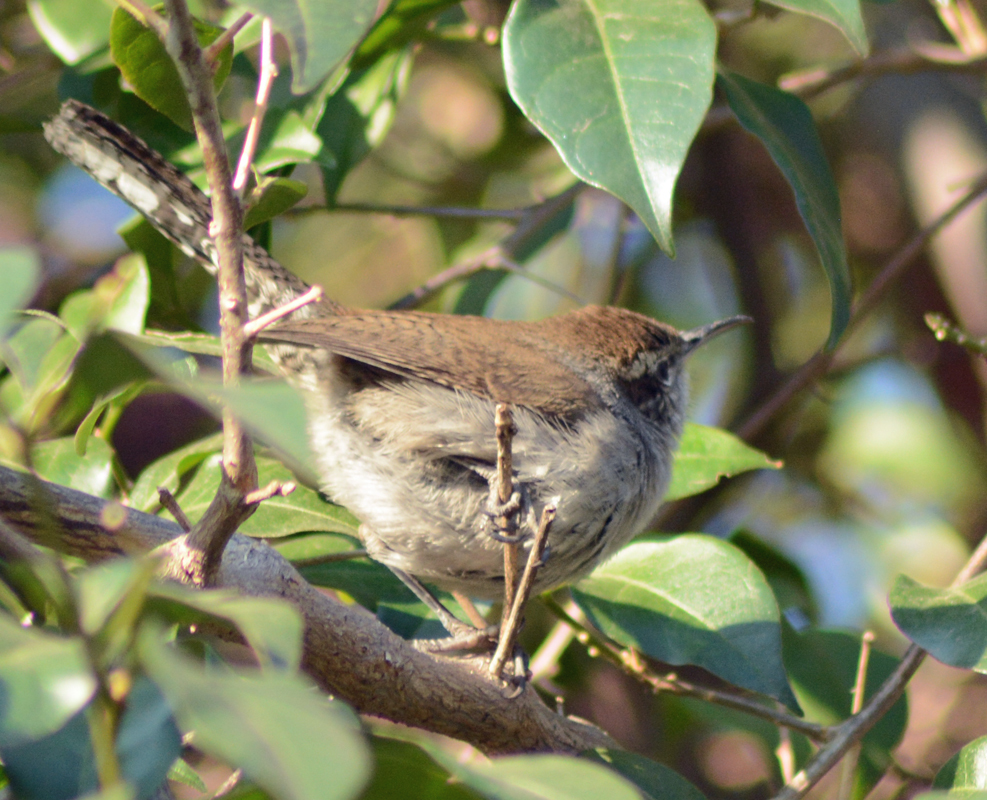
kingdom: Animalia
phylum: Chordata
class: Aves
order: Passeriformes
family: Troglodytidae
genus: Thryomanes
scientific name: Thryomanes bewickii
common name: Bewick's wren
